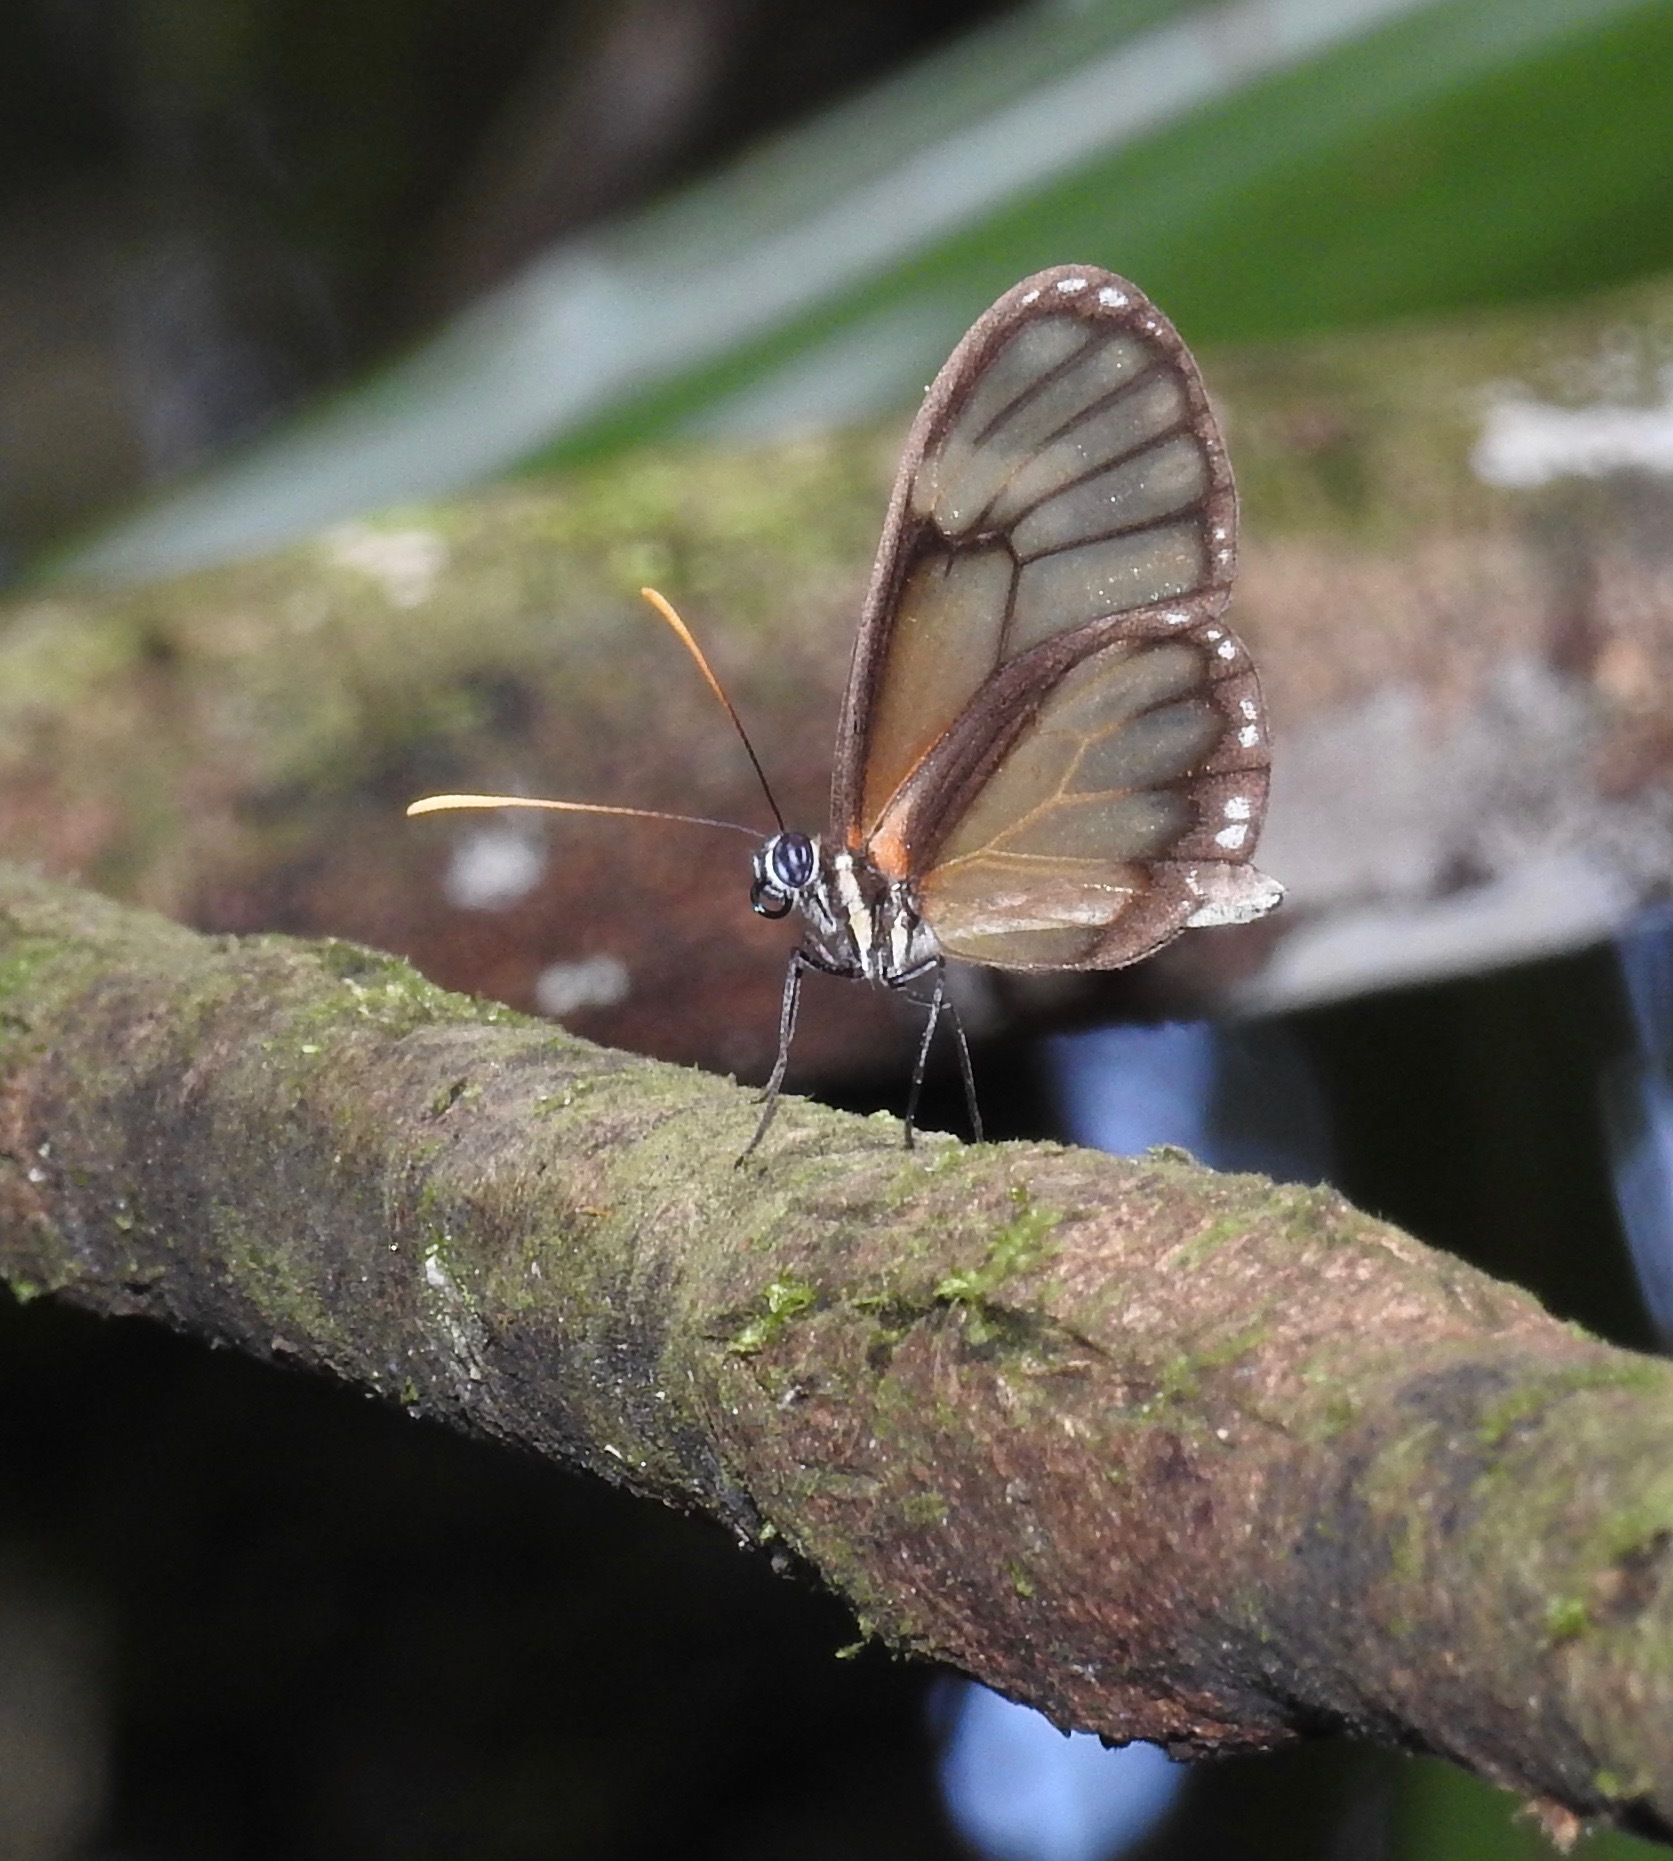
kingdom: Animalia
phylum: Arthropoda
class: Insecta
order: Lepidoptera
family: Nymphalidae
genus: Pteronymia
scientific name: Pteronymia fumida
